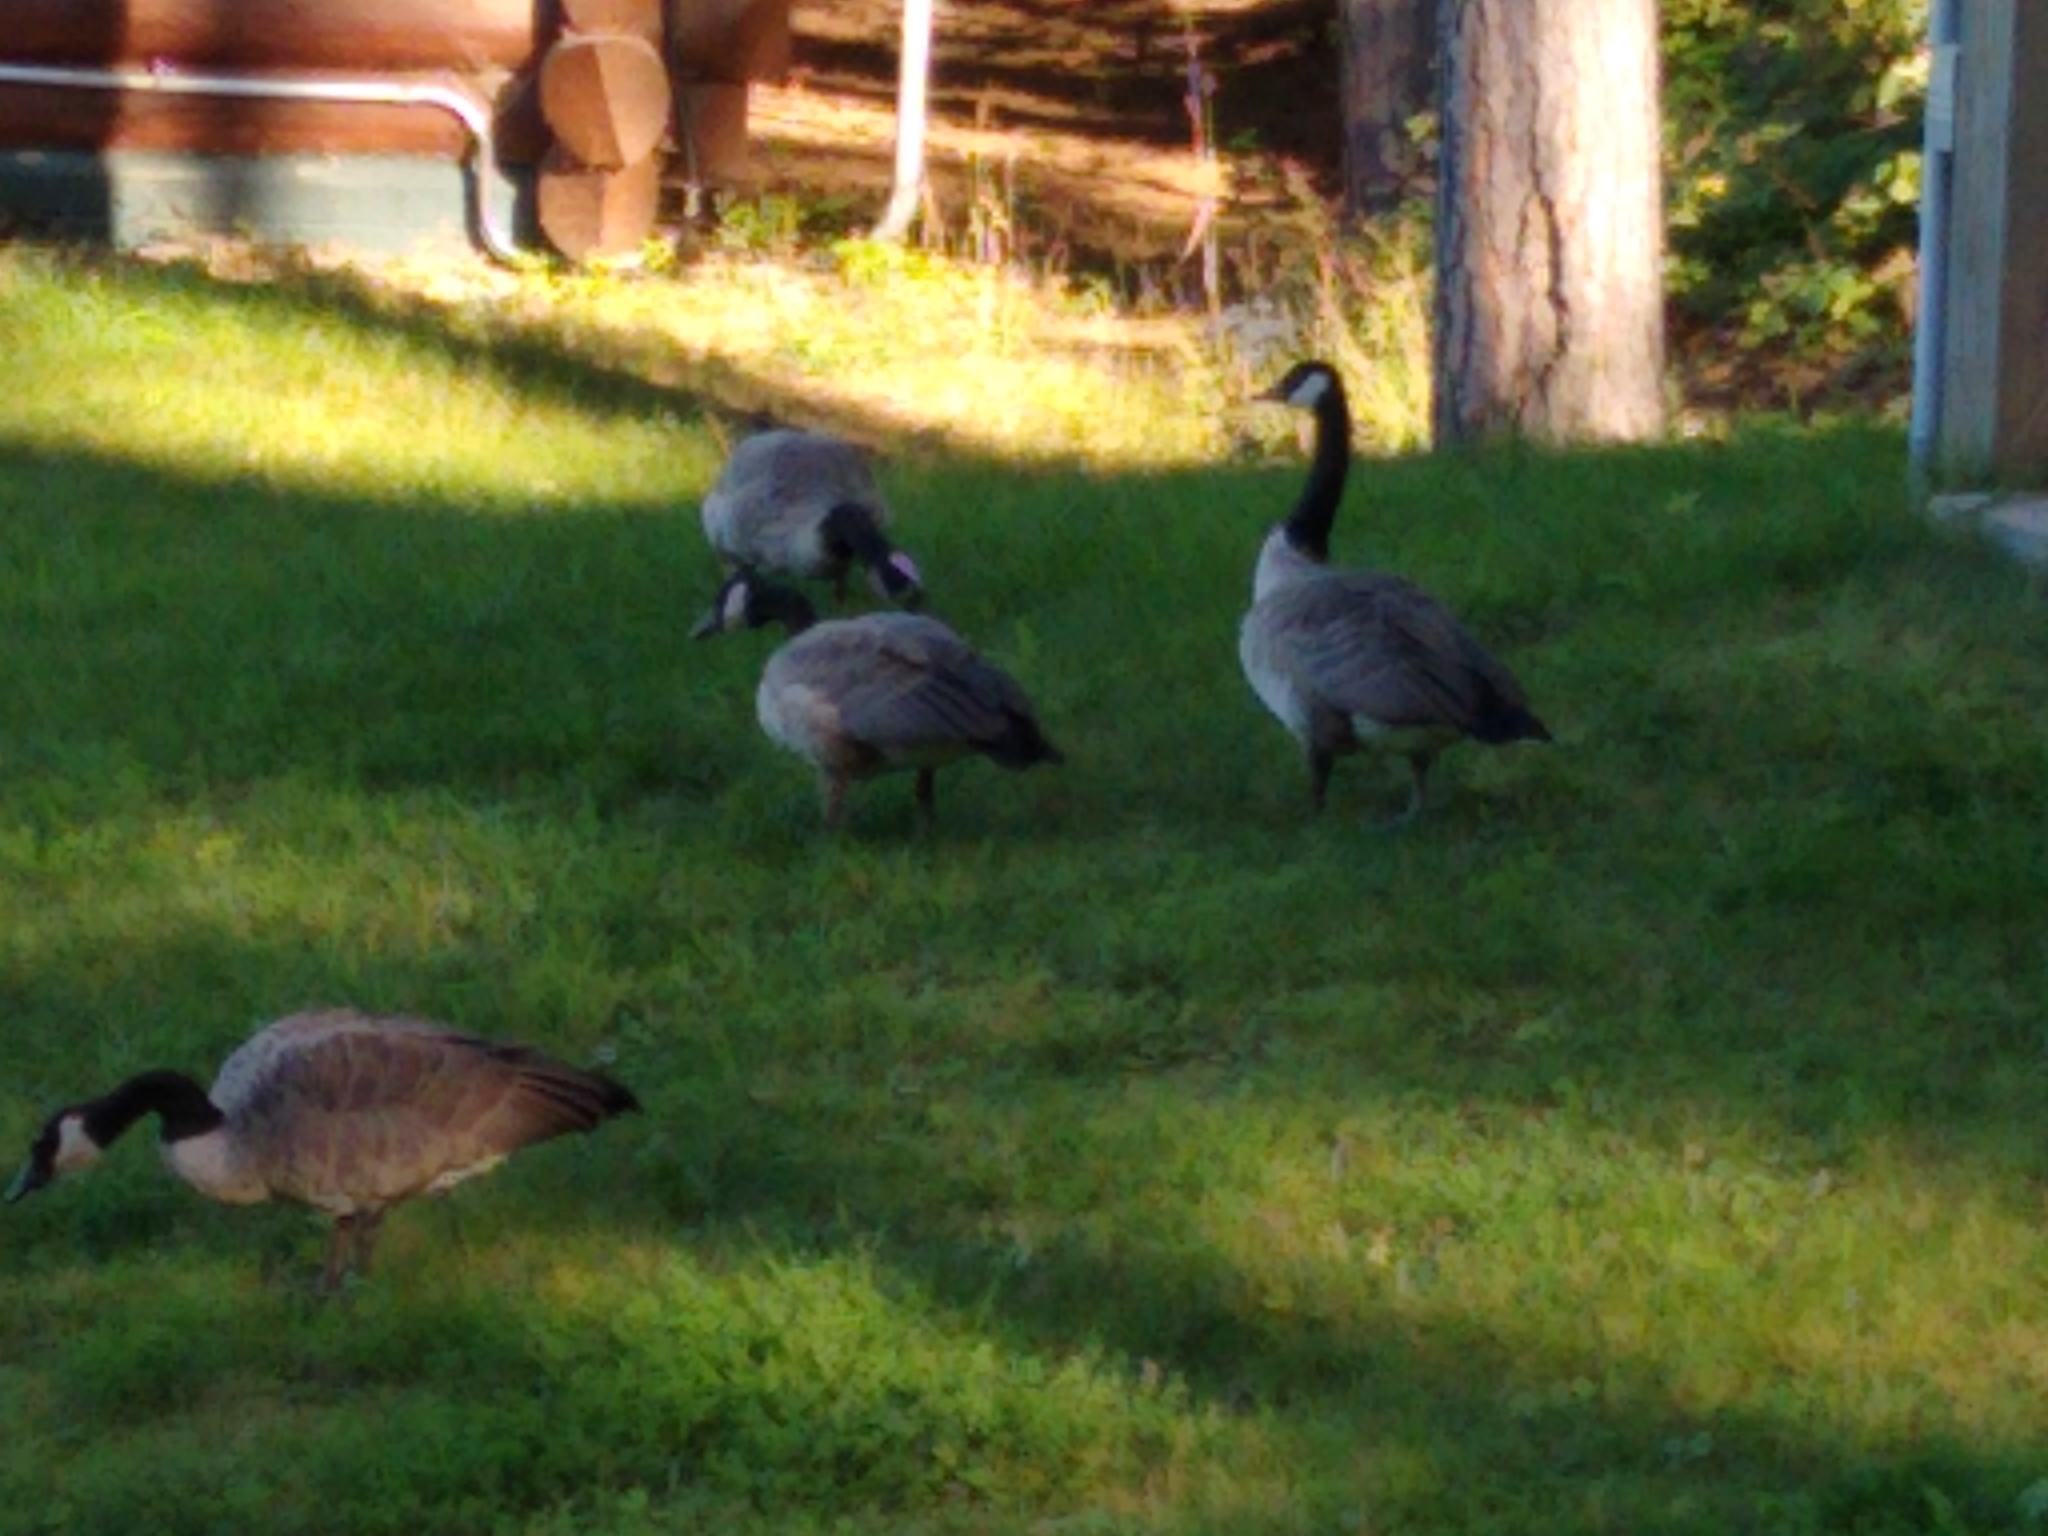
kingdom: Animalia
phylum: Chordata
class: Aves
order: Anseriformes
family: Anatidae
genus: Branta
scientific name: Branta canadensis
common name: Canada goose
